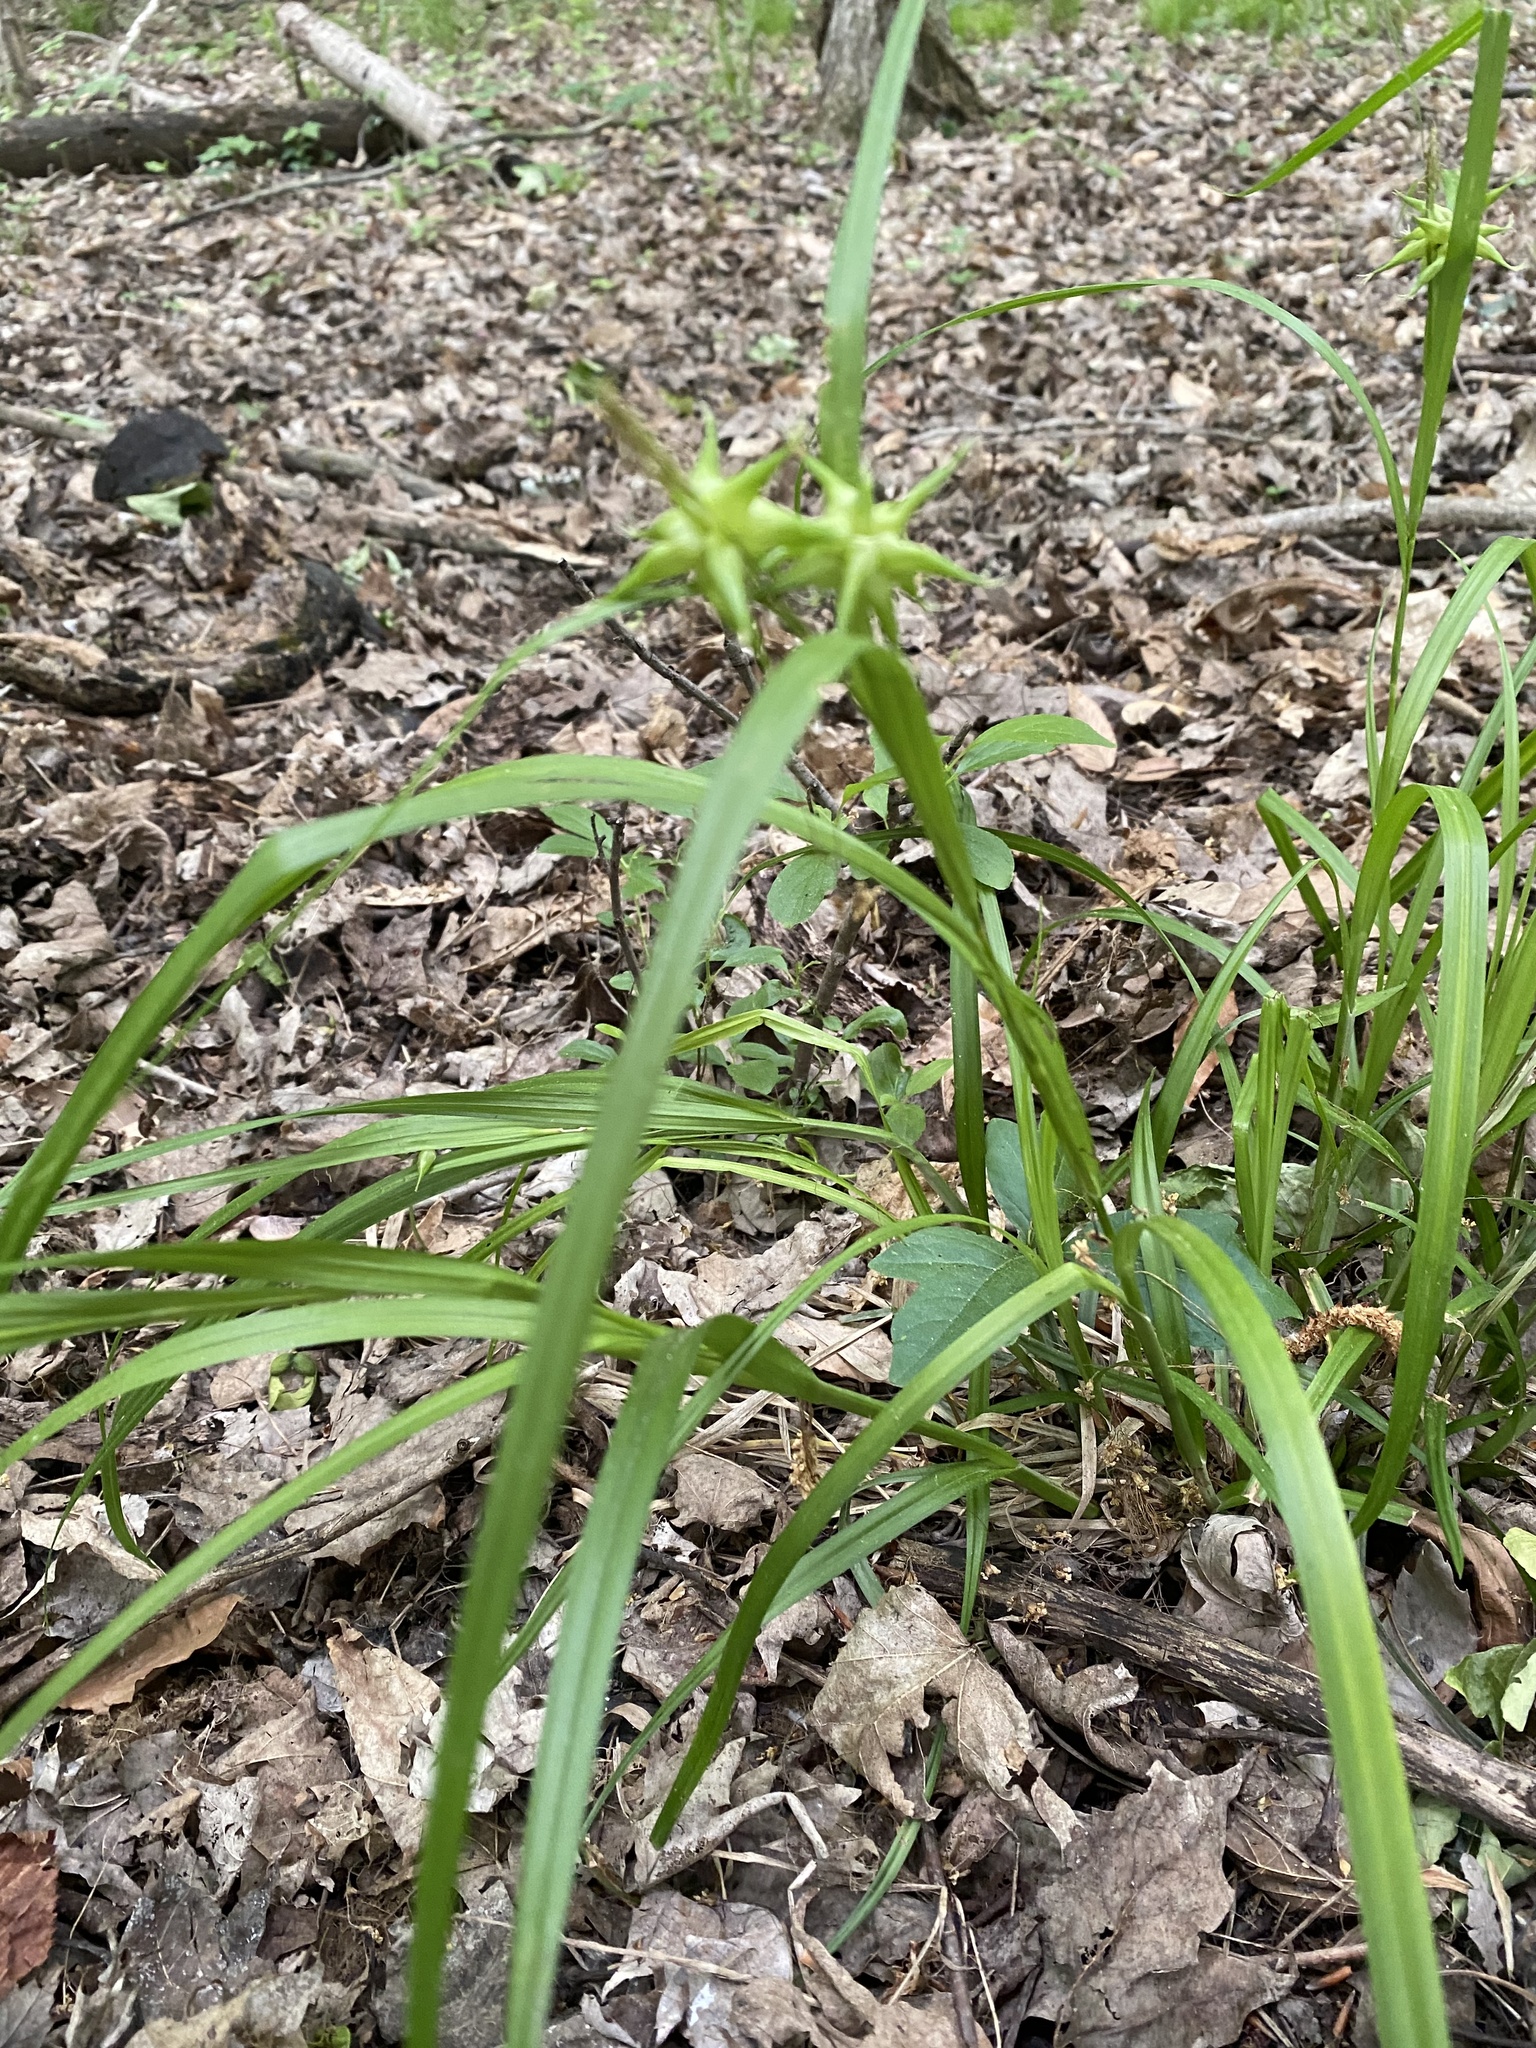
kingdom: Plantae
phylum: Tracheophyta
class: Liliopsida
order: Poales
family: Cyperaceae
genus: Carex
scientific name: Carex grayi
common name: Asa gray's sedge
